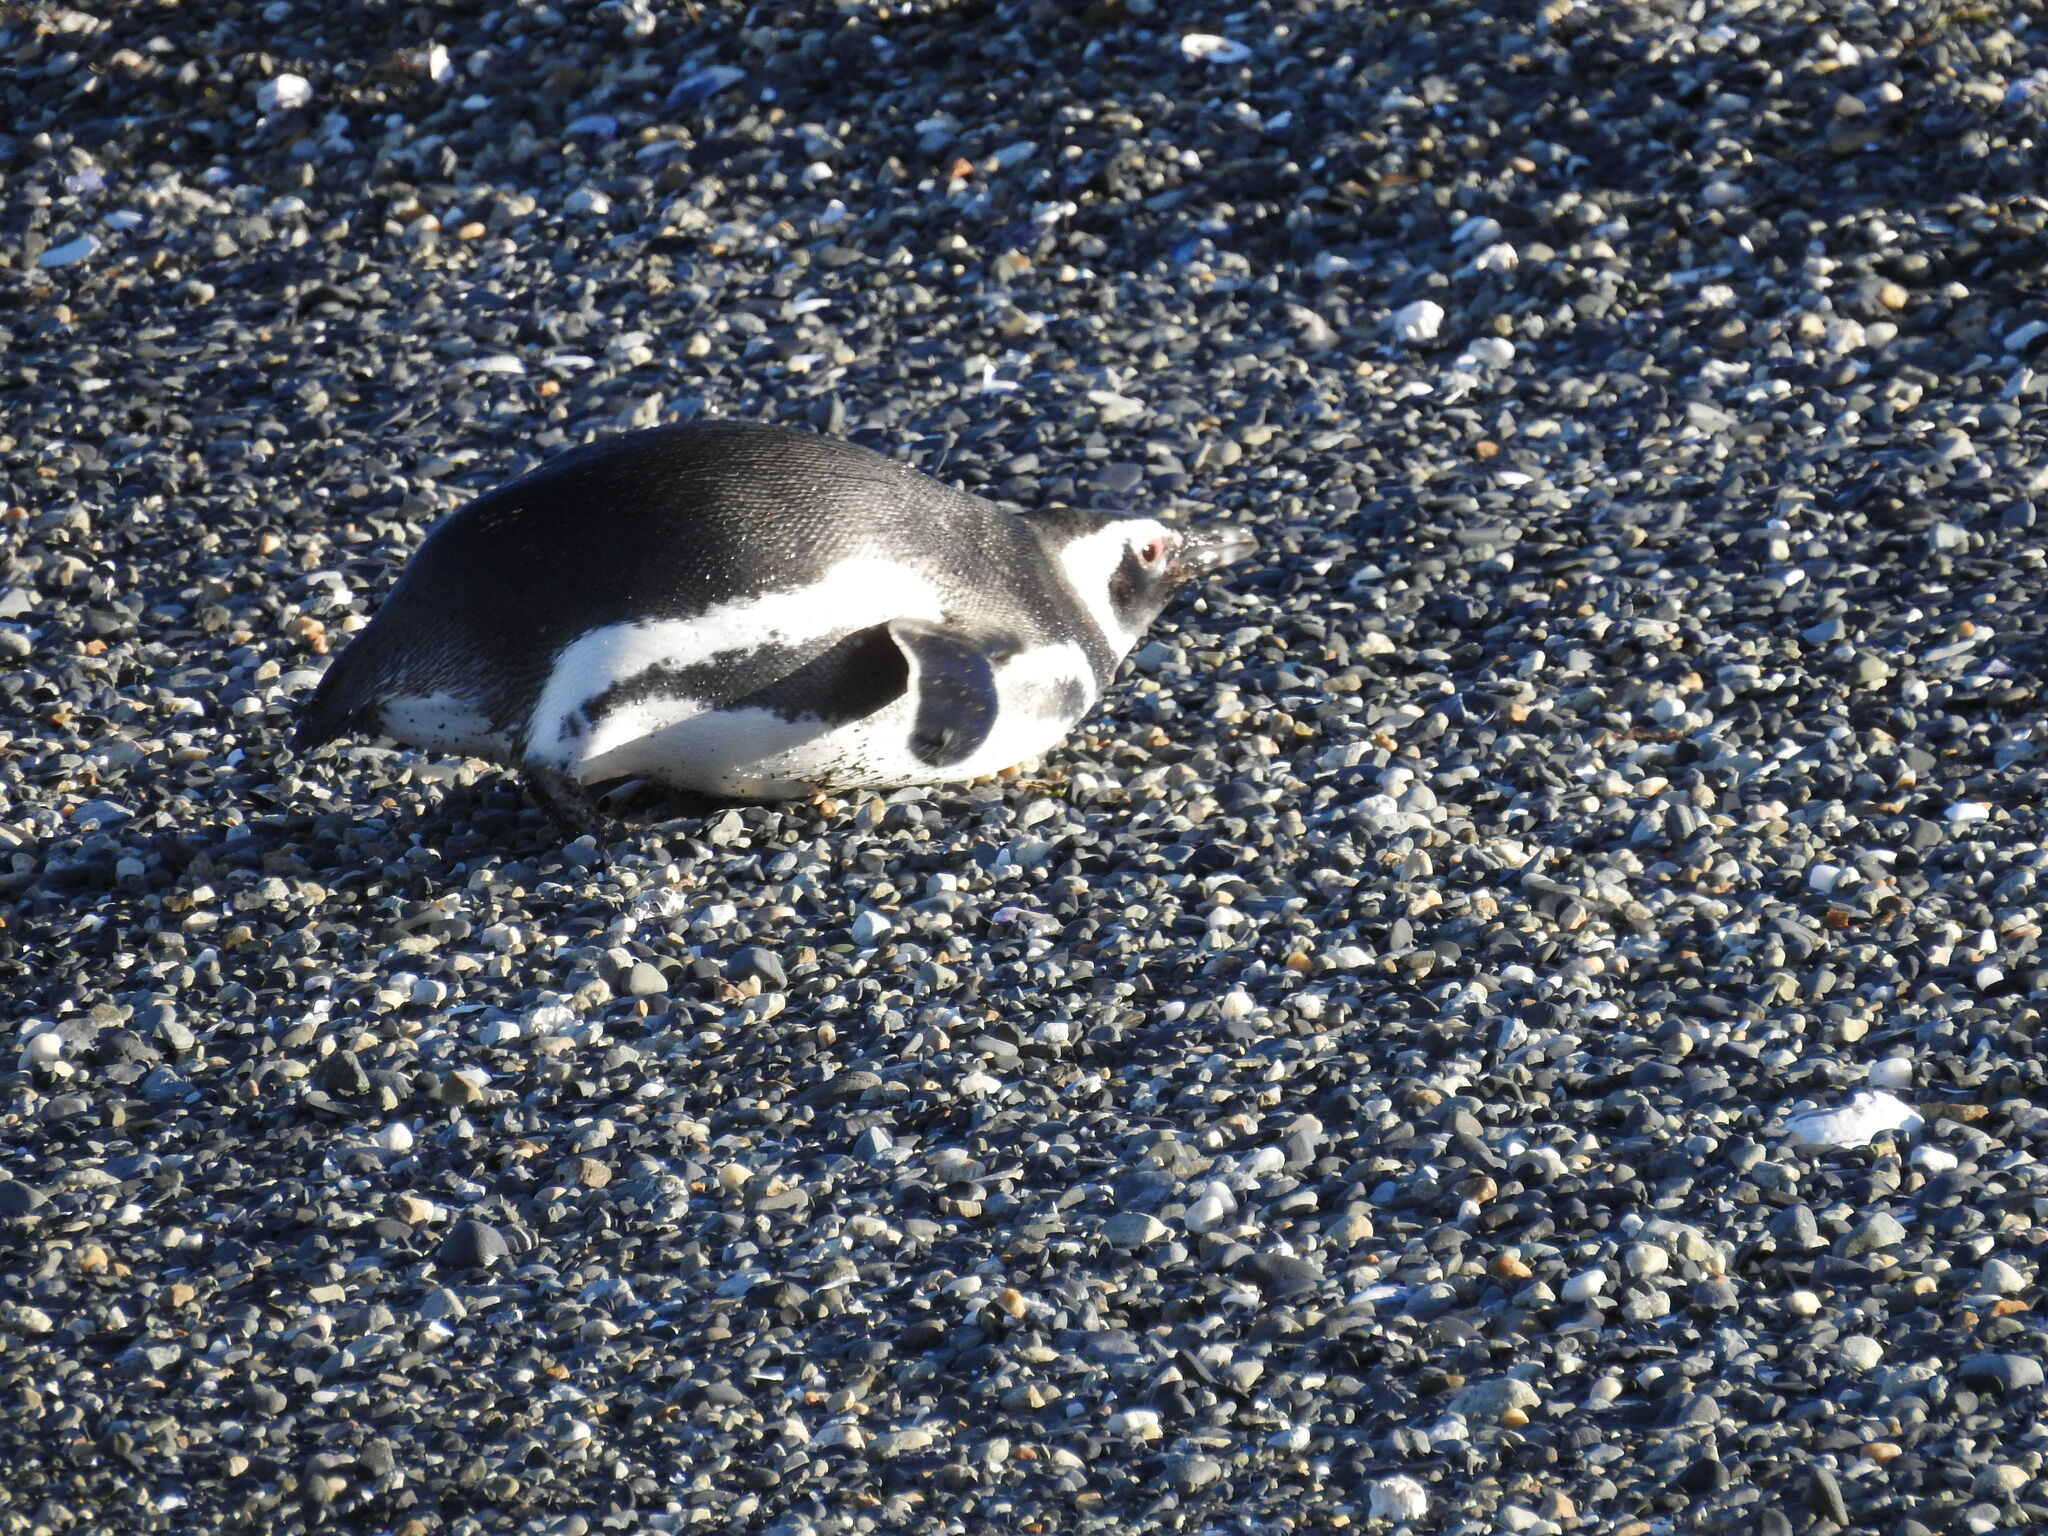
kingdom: Animalia
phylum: Chordata
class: Aves
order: Sphenisciformes
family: Spheniscidae
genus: Spheniscus
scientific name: Spheniscus magellanicus
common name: Magellanic penguin
